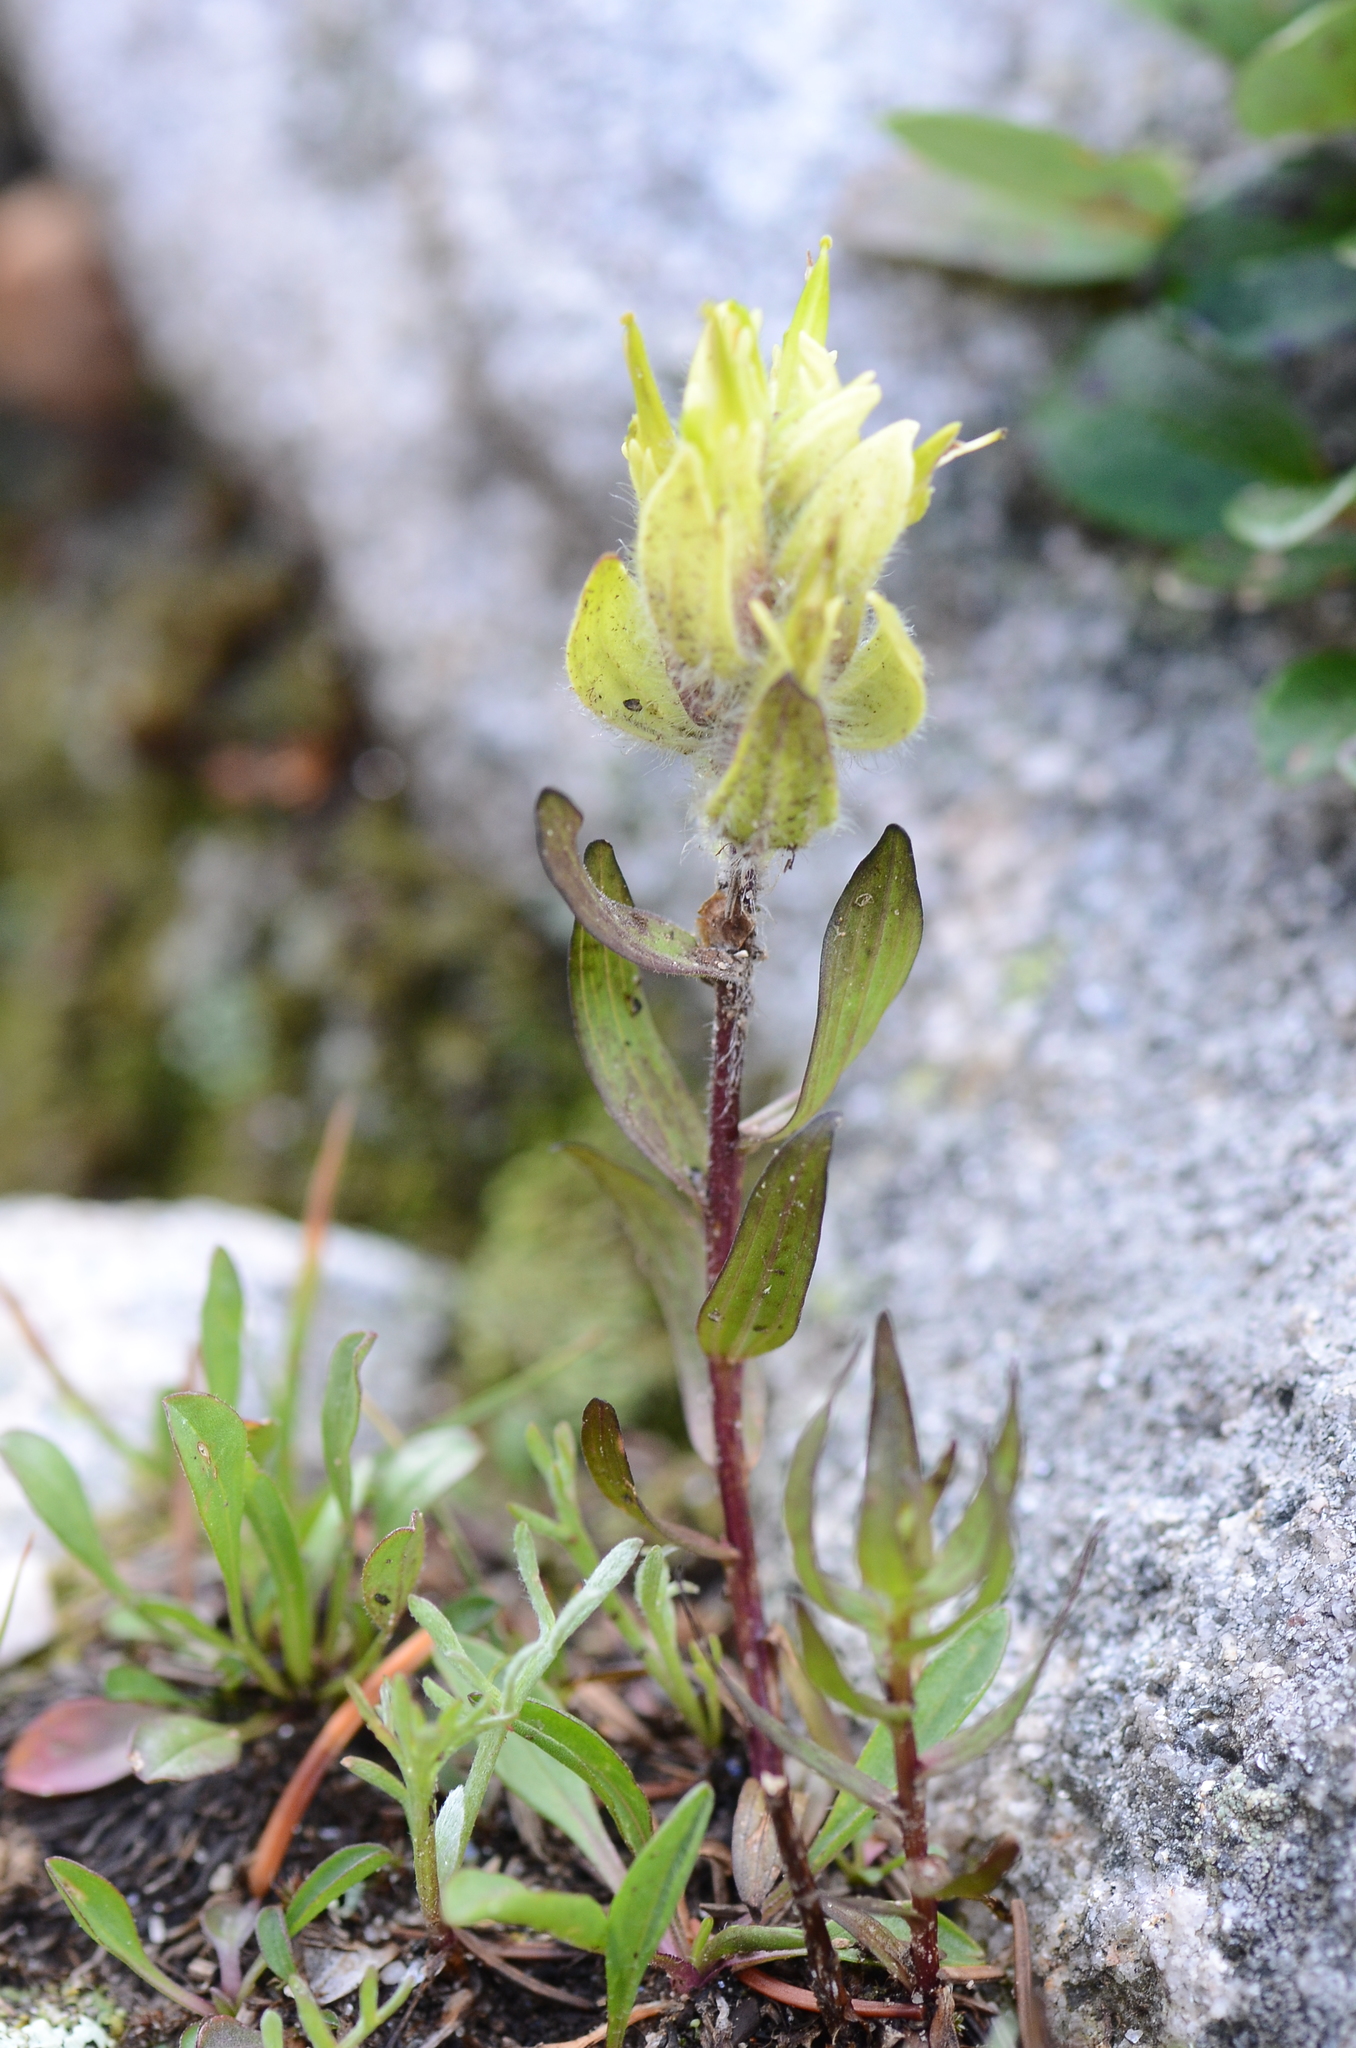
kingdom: Plantae
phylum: Tracheophyta
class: Magnoliopsida
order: Lamiales
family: Orobanchaceae
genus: Castilleja
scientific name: Castilleja occidentalis
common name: Western paintbrush
